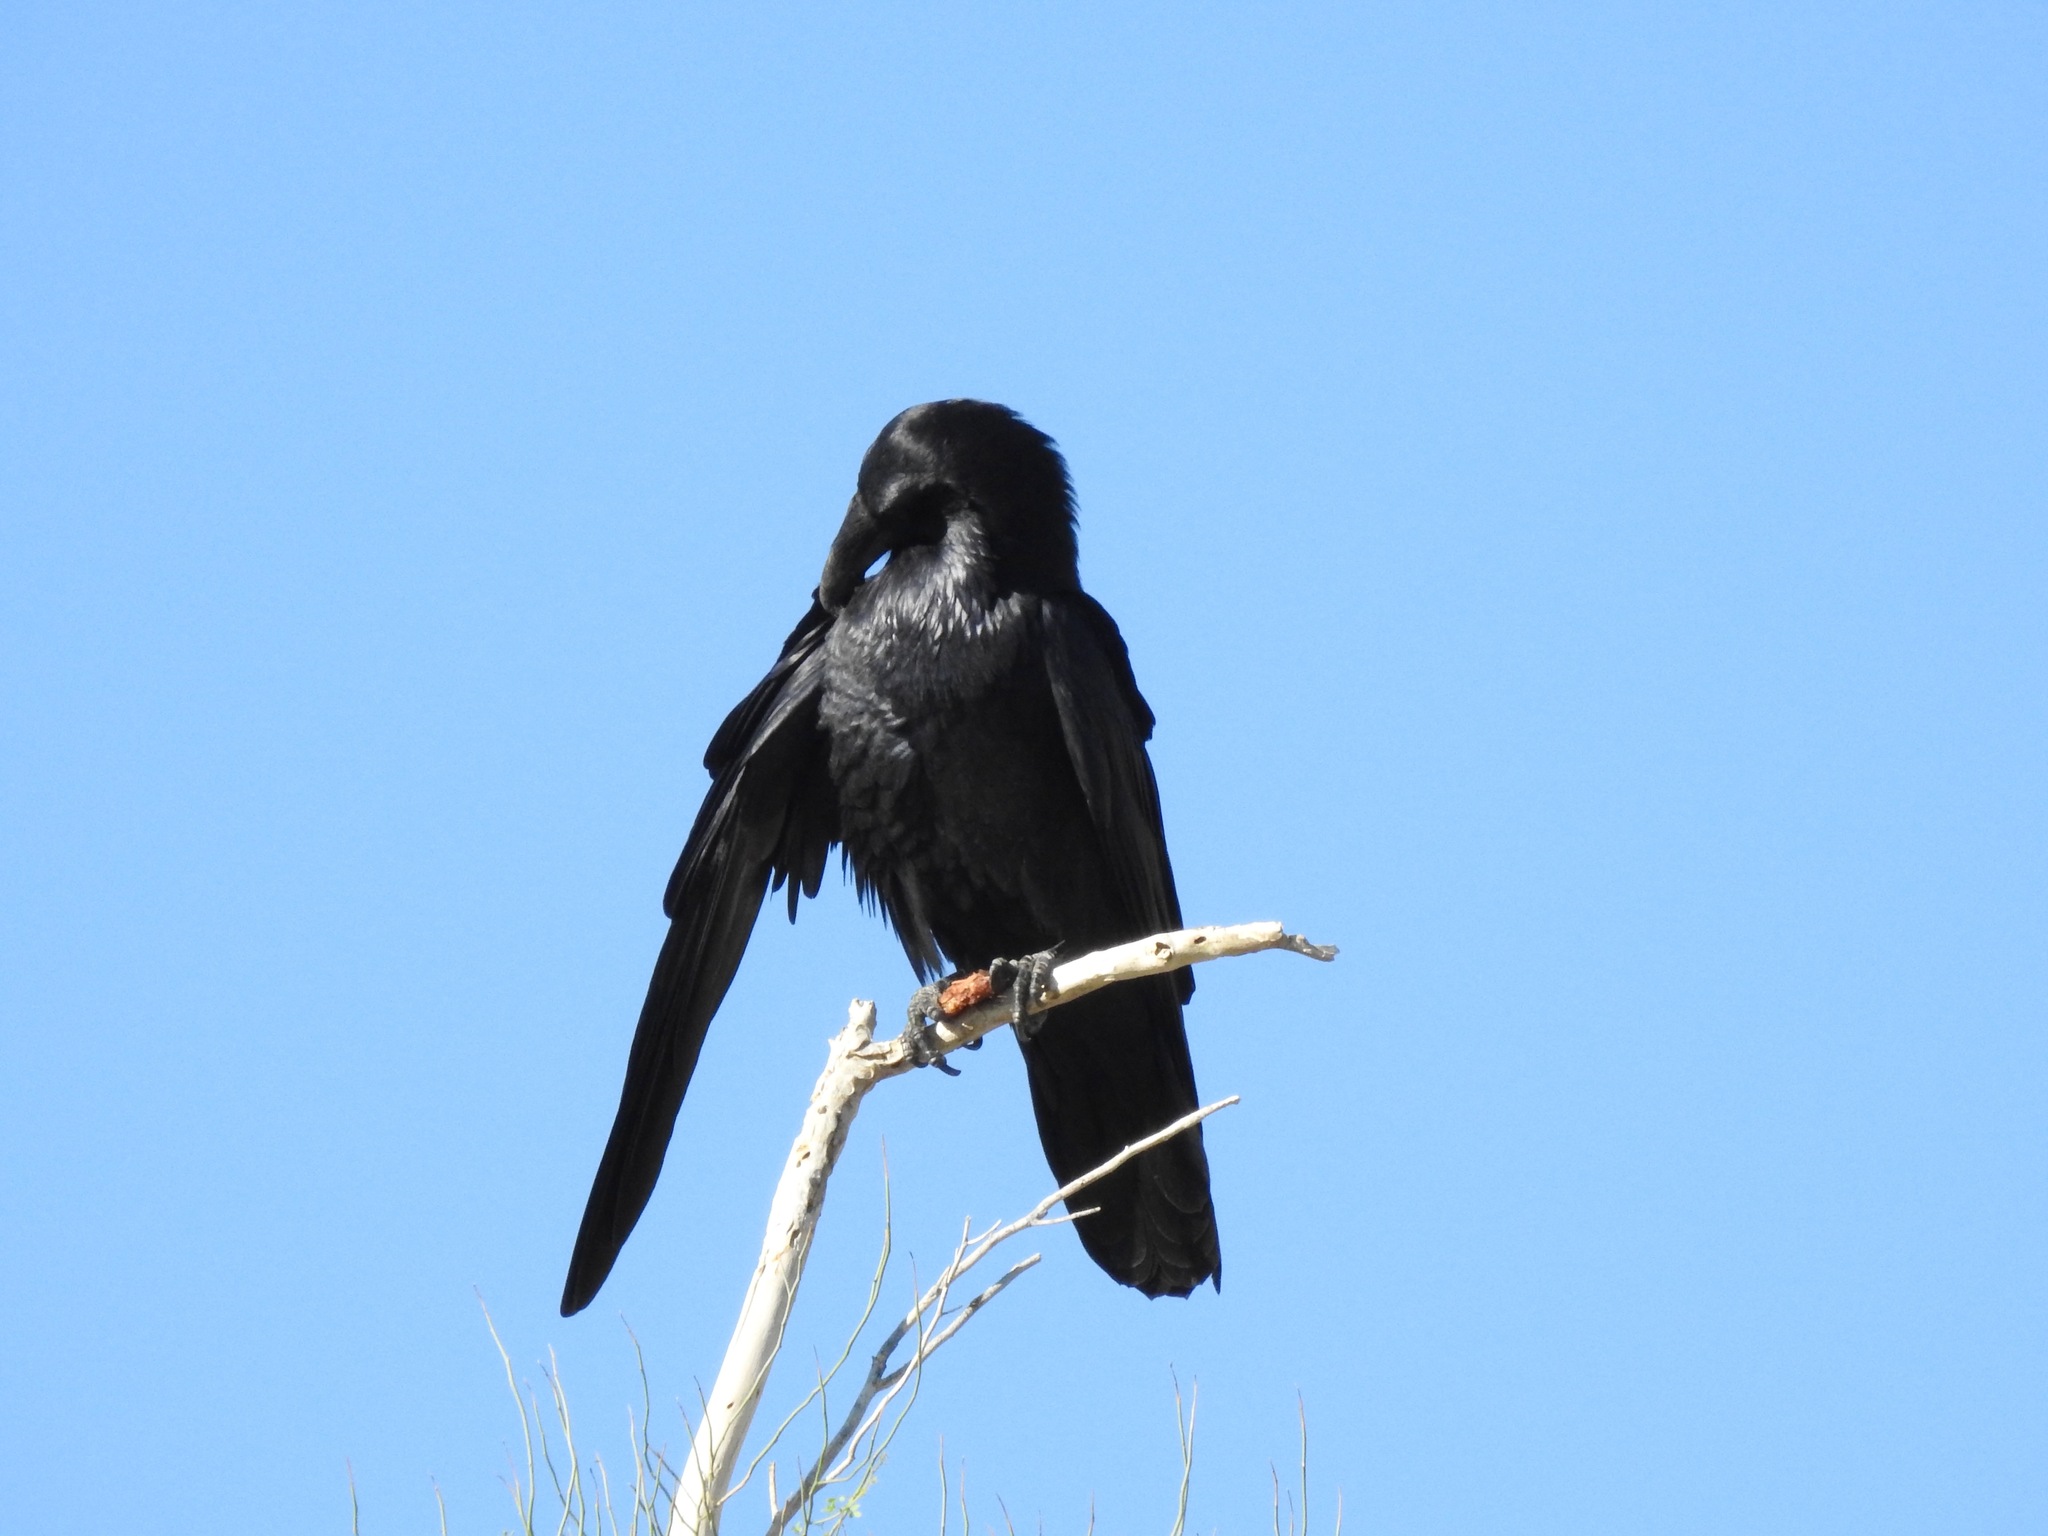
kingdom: Animalia
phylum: Chordata
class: Aves
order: Passeriformes
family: Corvidae
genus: Corvus
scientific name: Corvus corax
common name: Common raven
